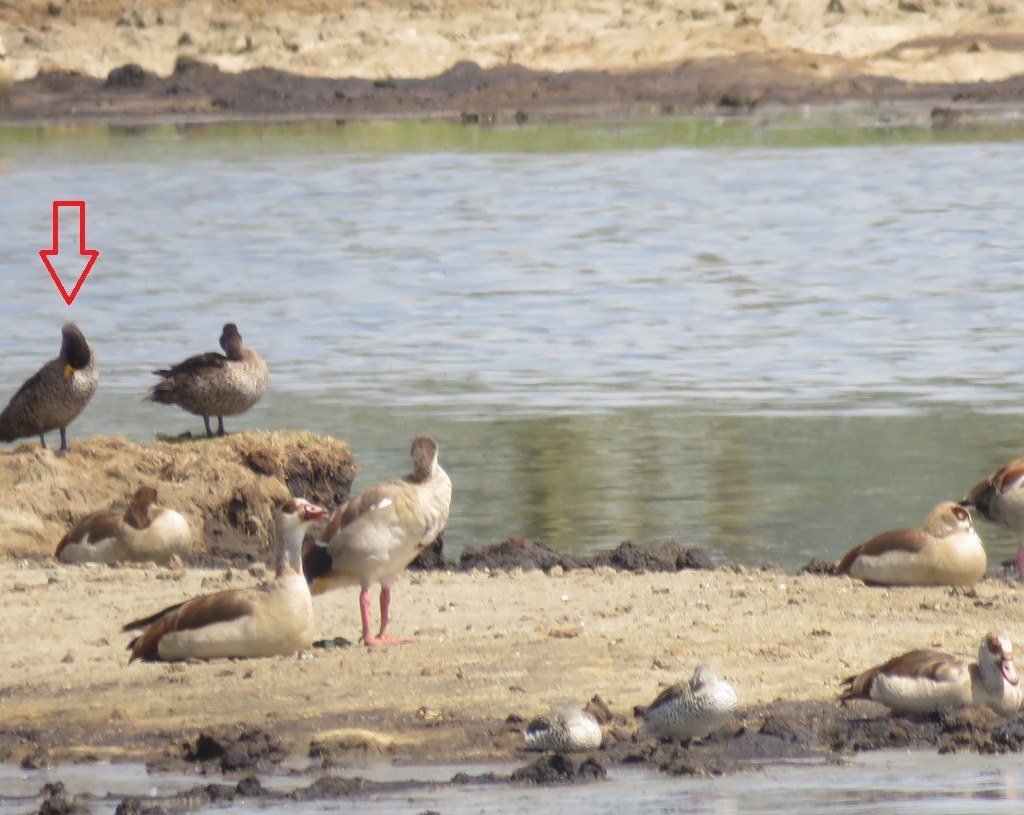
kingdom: Animalia
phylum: Chordata
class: Aves
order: Anseriformes
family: Anatidae
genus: Anas
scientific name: Anas undulata
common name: Yellow-billed duck
